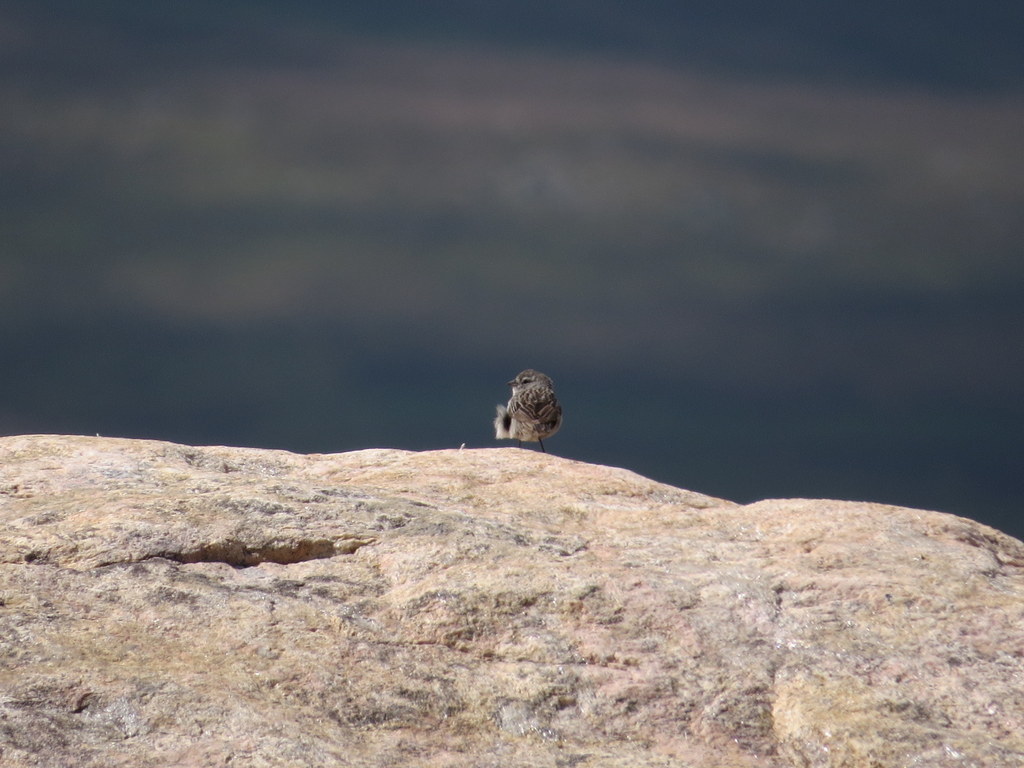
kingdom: Animalia
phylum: Chordata
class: Aves
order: Passeriformes
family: Thraupidae
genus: Geospizopsis
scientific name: Geospizopsis plebejus
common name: Ash-breasted sierra-finch
